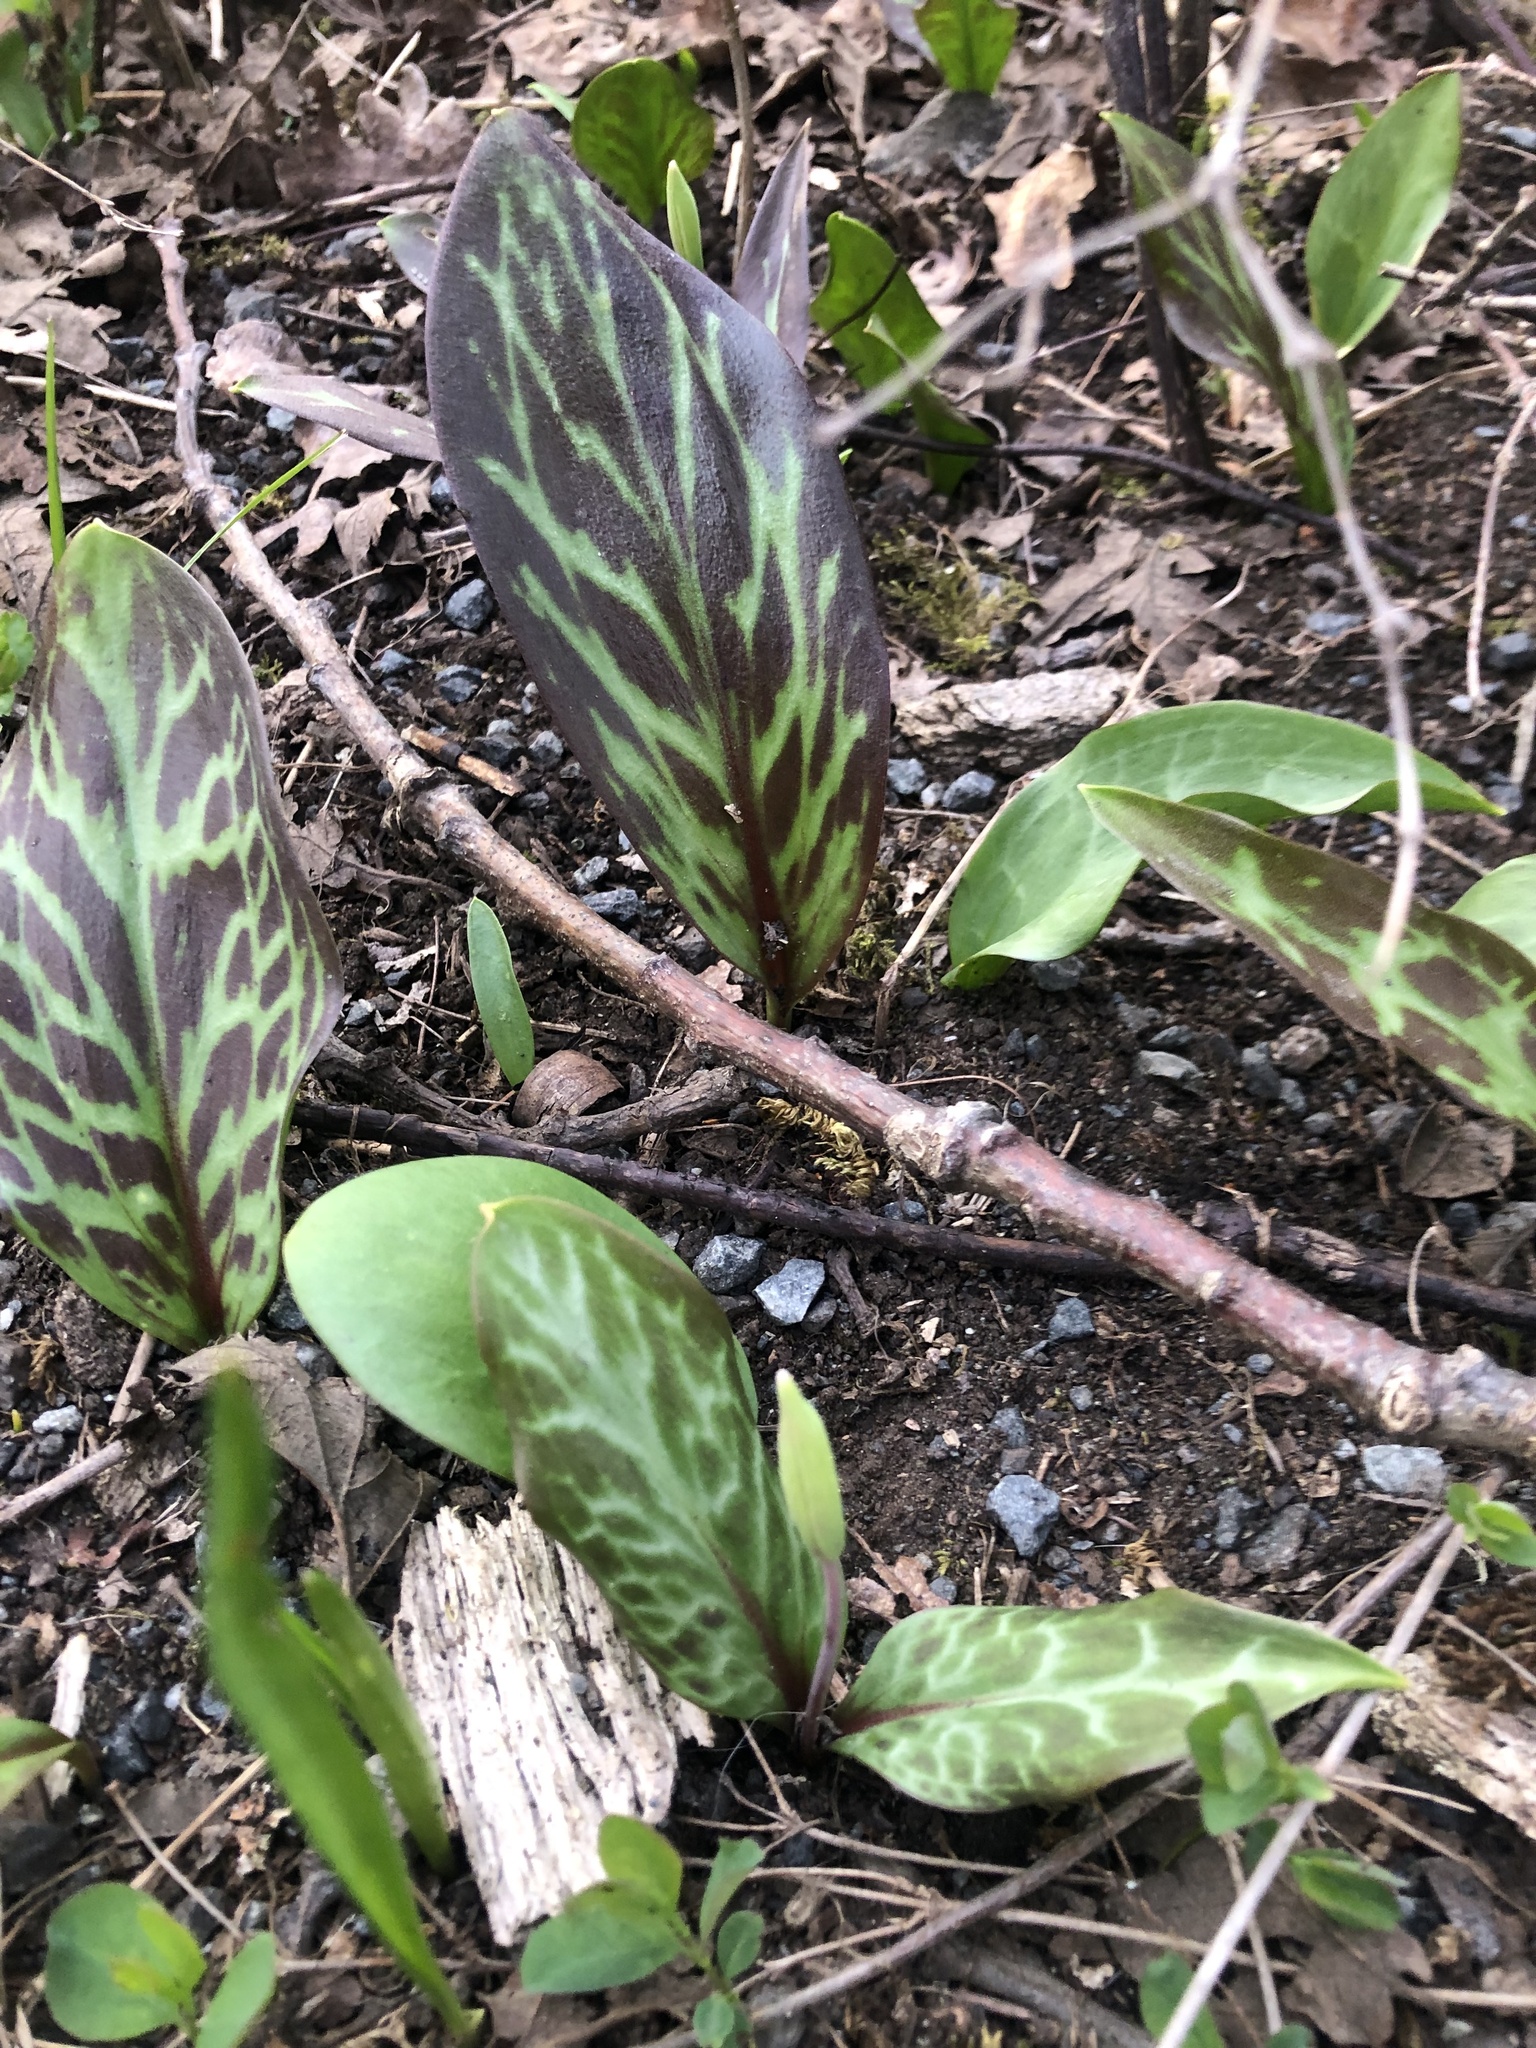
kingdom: Plantae
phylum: Tracheophyta
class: Liliopsida
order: Liliales
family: Liliaceae
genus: Erythronium
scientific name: Erythronium oregonum
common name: Giant adder's-tongue
